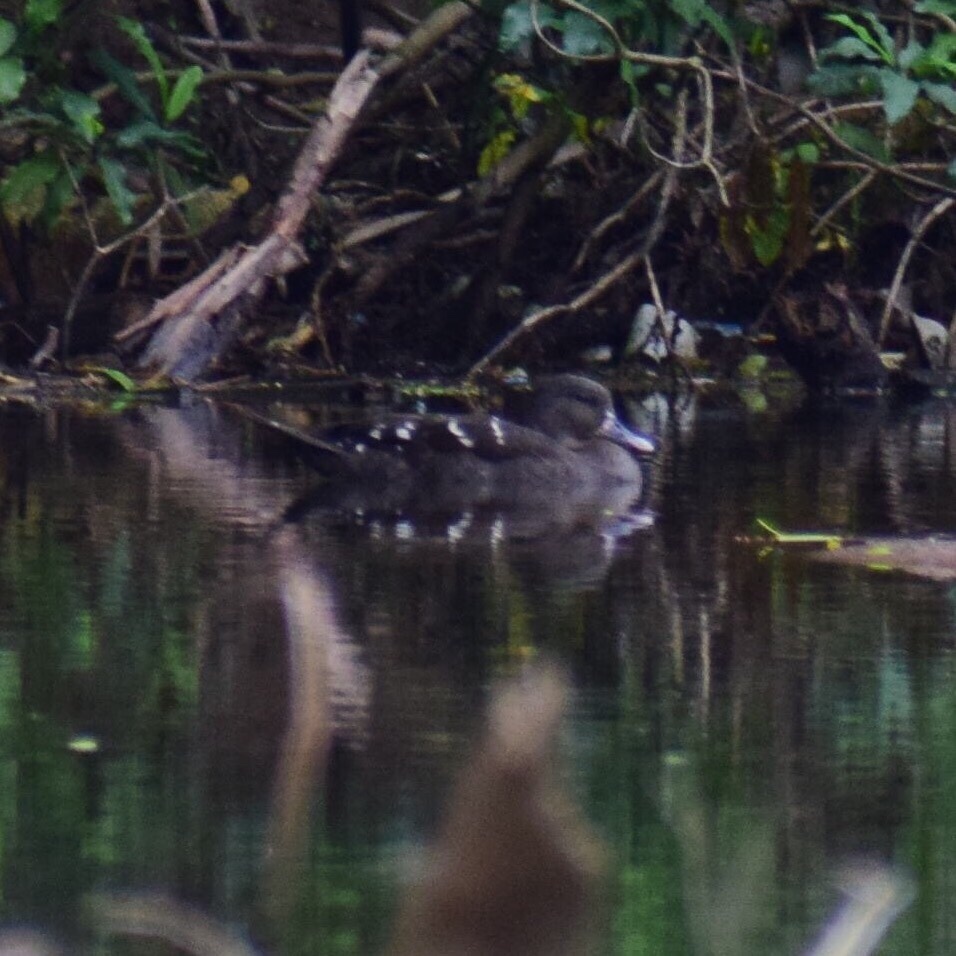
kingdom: Animalia
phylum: Chordata
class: Aves
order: Anseriformes
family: Anatidae
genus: Anas
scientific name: Anas sparsa
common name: African black duck
